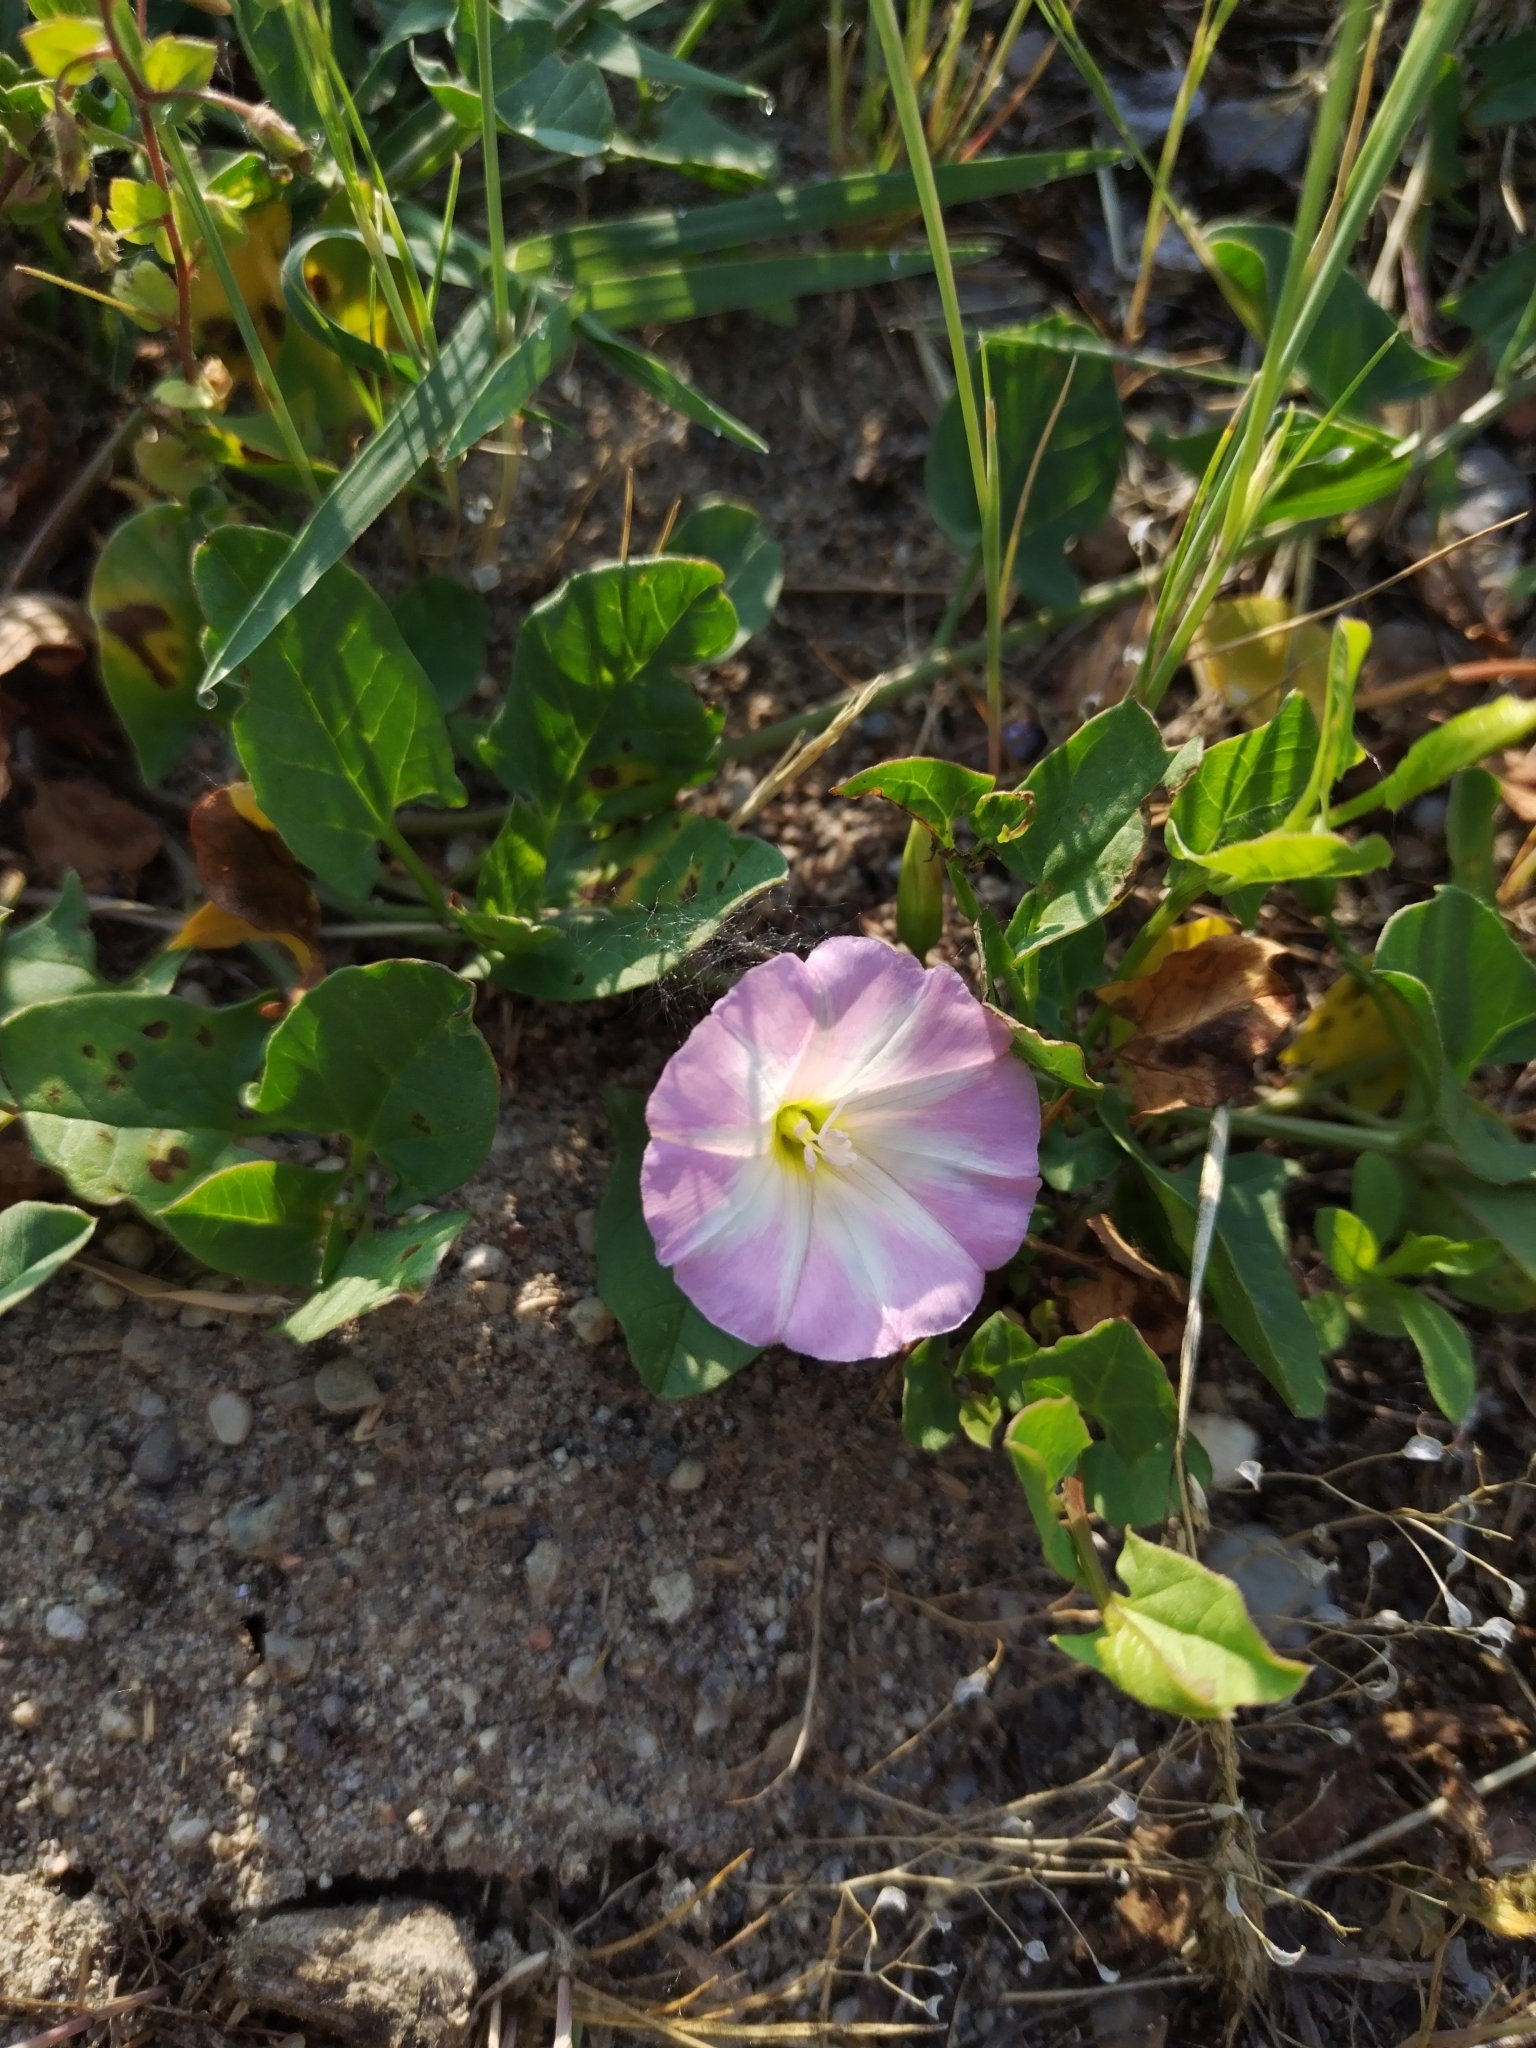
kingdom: Plantae
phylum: Tracheophyta
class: Magnoliopsida
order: Solanales
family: Convolvulaceae
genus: Convolvulus
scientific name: Convolvulus arvensis
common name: Field bindweed
